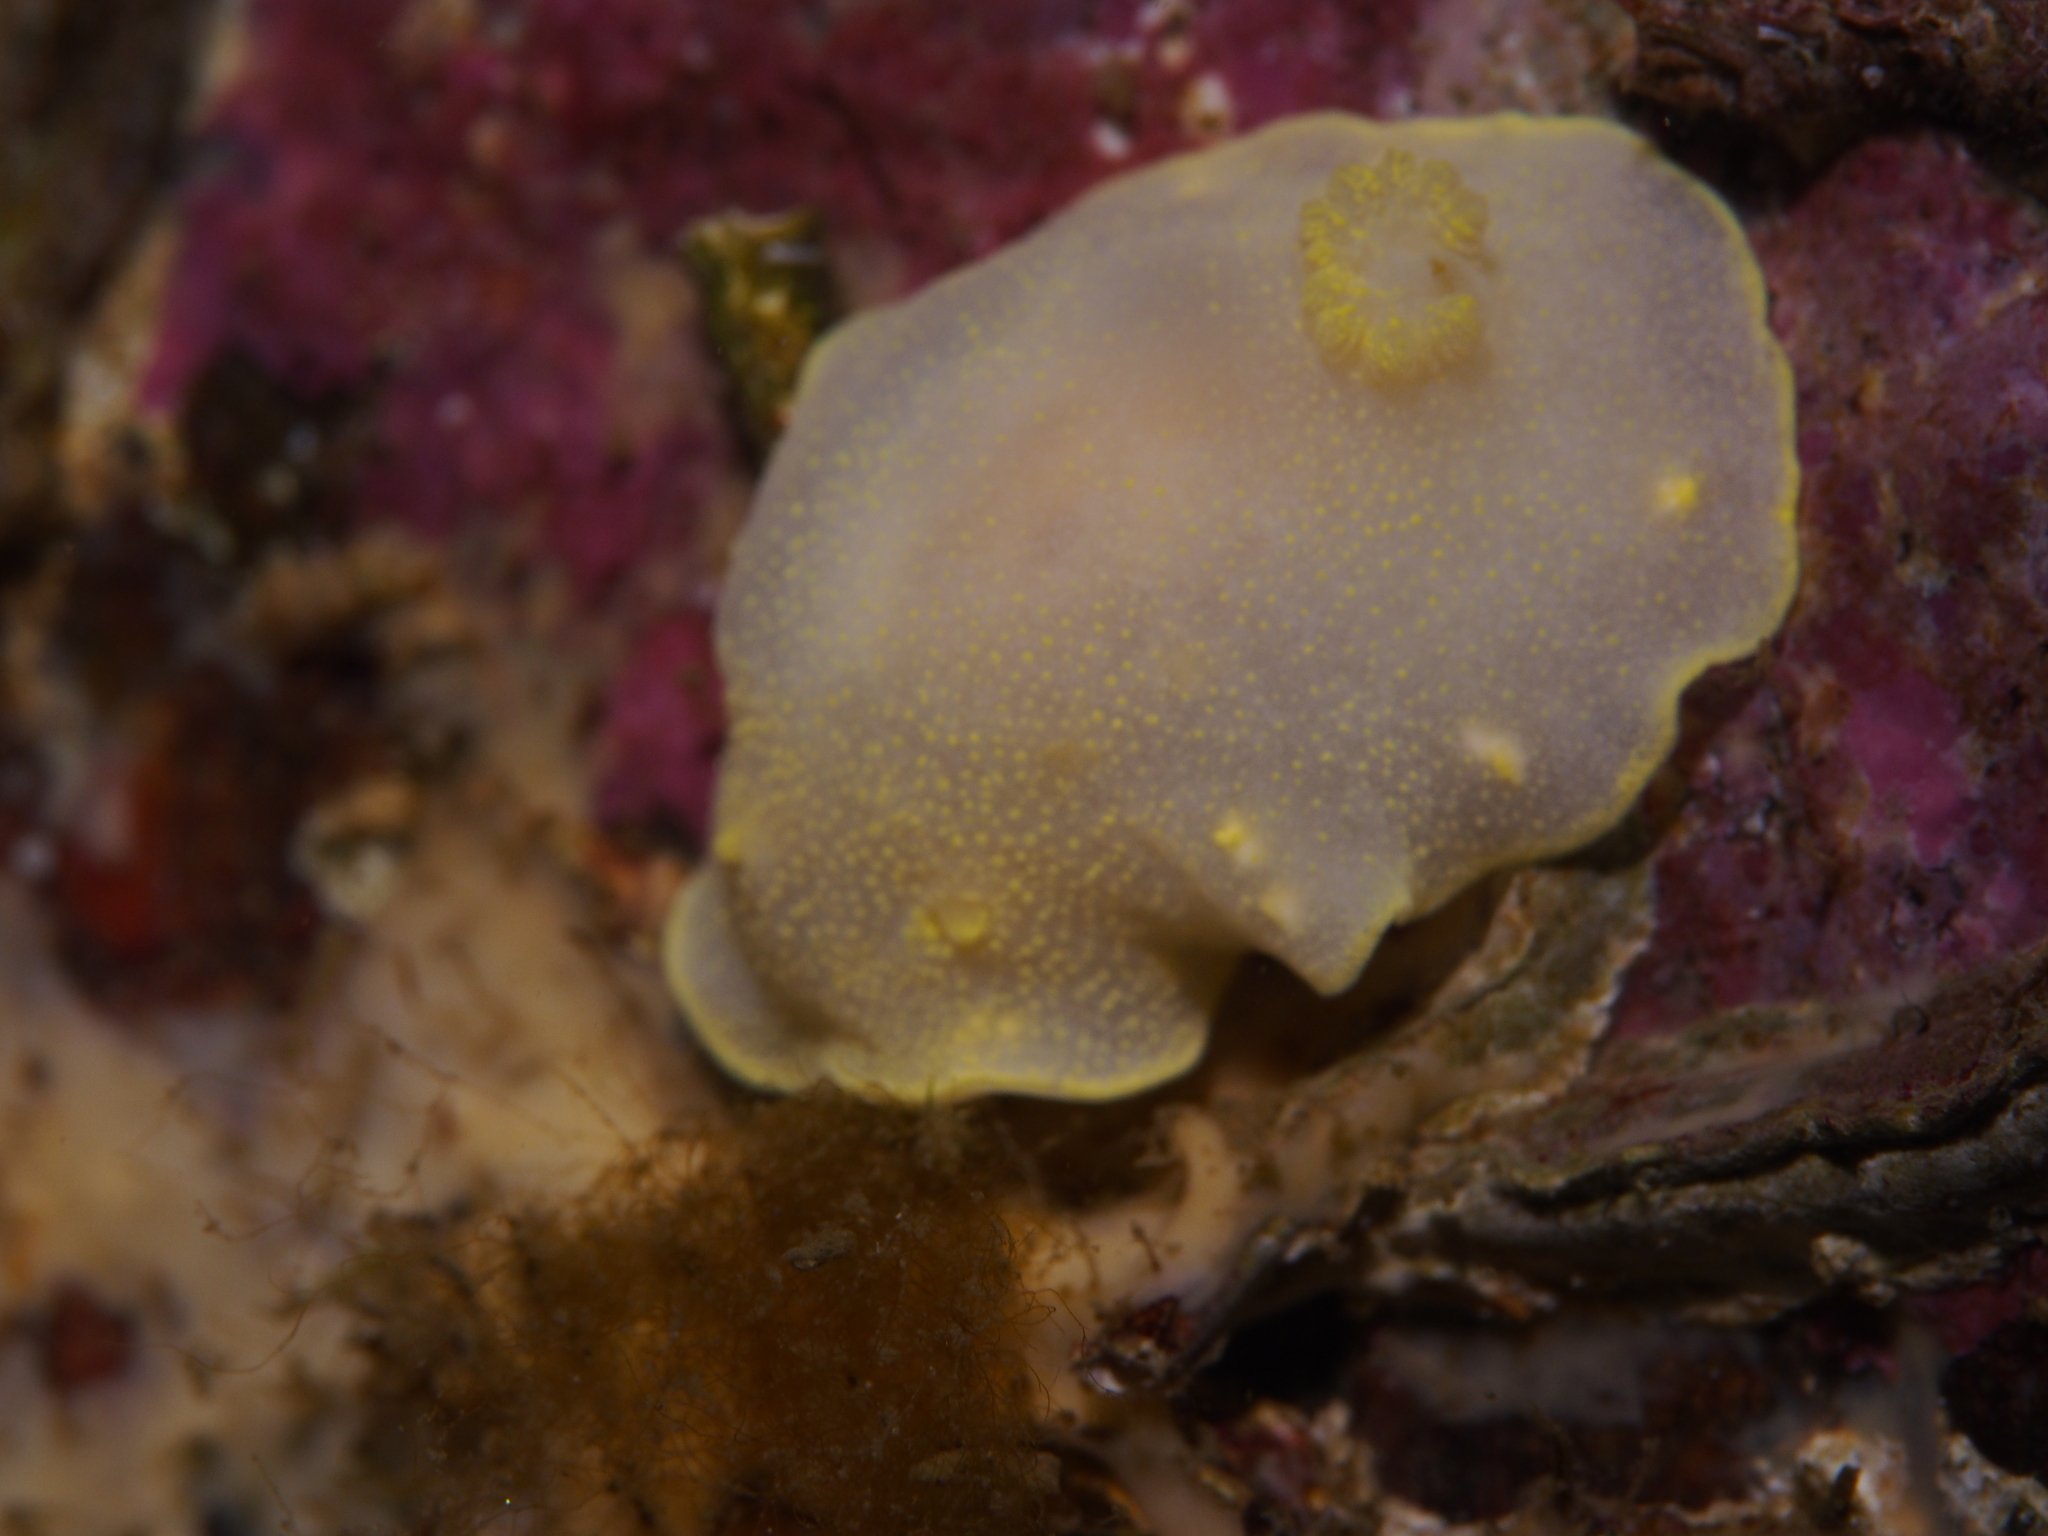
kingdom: Animalia
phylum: Mollusca
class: Gastropoda
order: Nudibranchia
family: Cadlinidae
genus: Cadlina
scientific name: Cadlina laevis
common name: White atlantic cadlina
